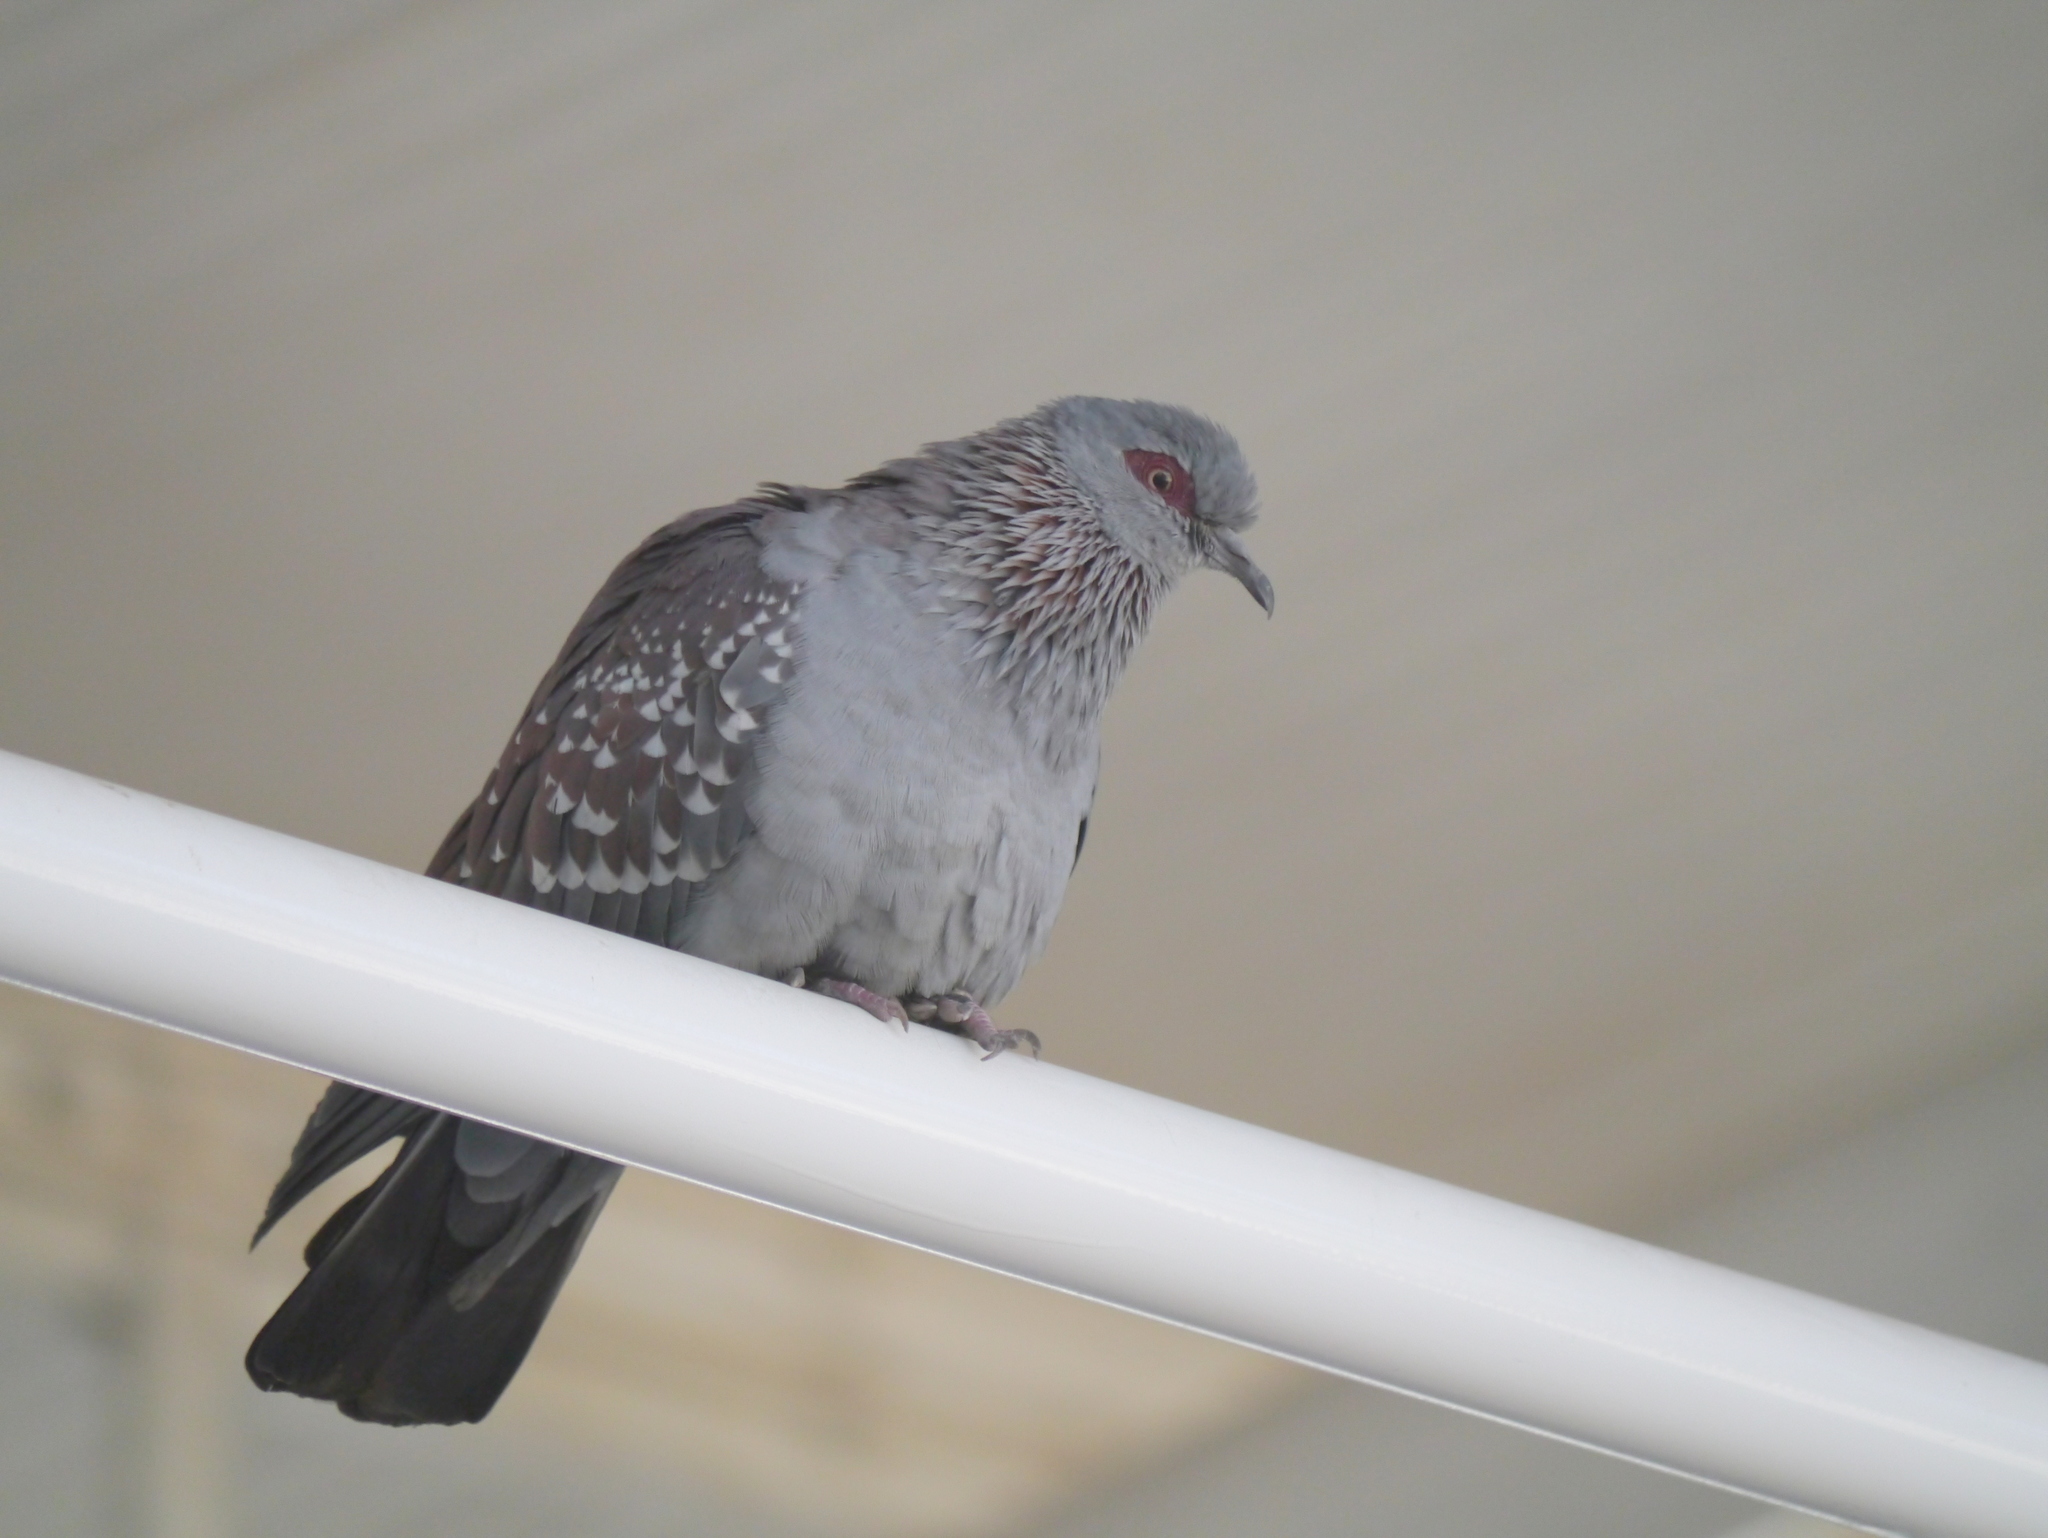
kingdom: Animalia
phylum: Chordata
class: Aves
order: Columbiformes
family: Columbidae
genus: Columba
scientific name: Columba guinea
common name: Speckled pigeon
